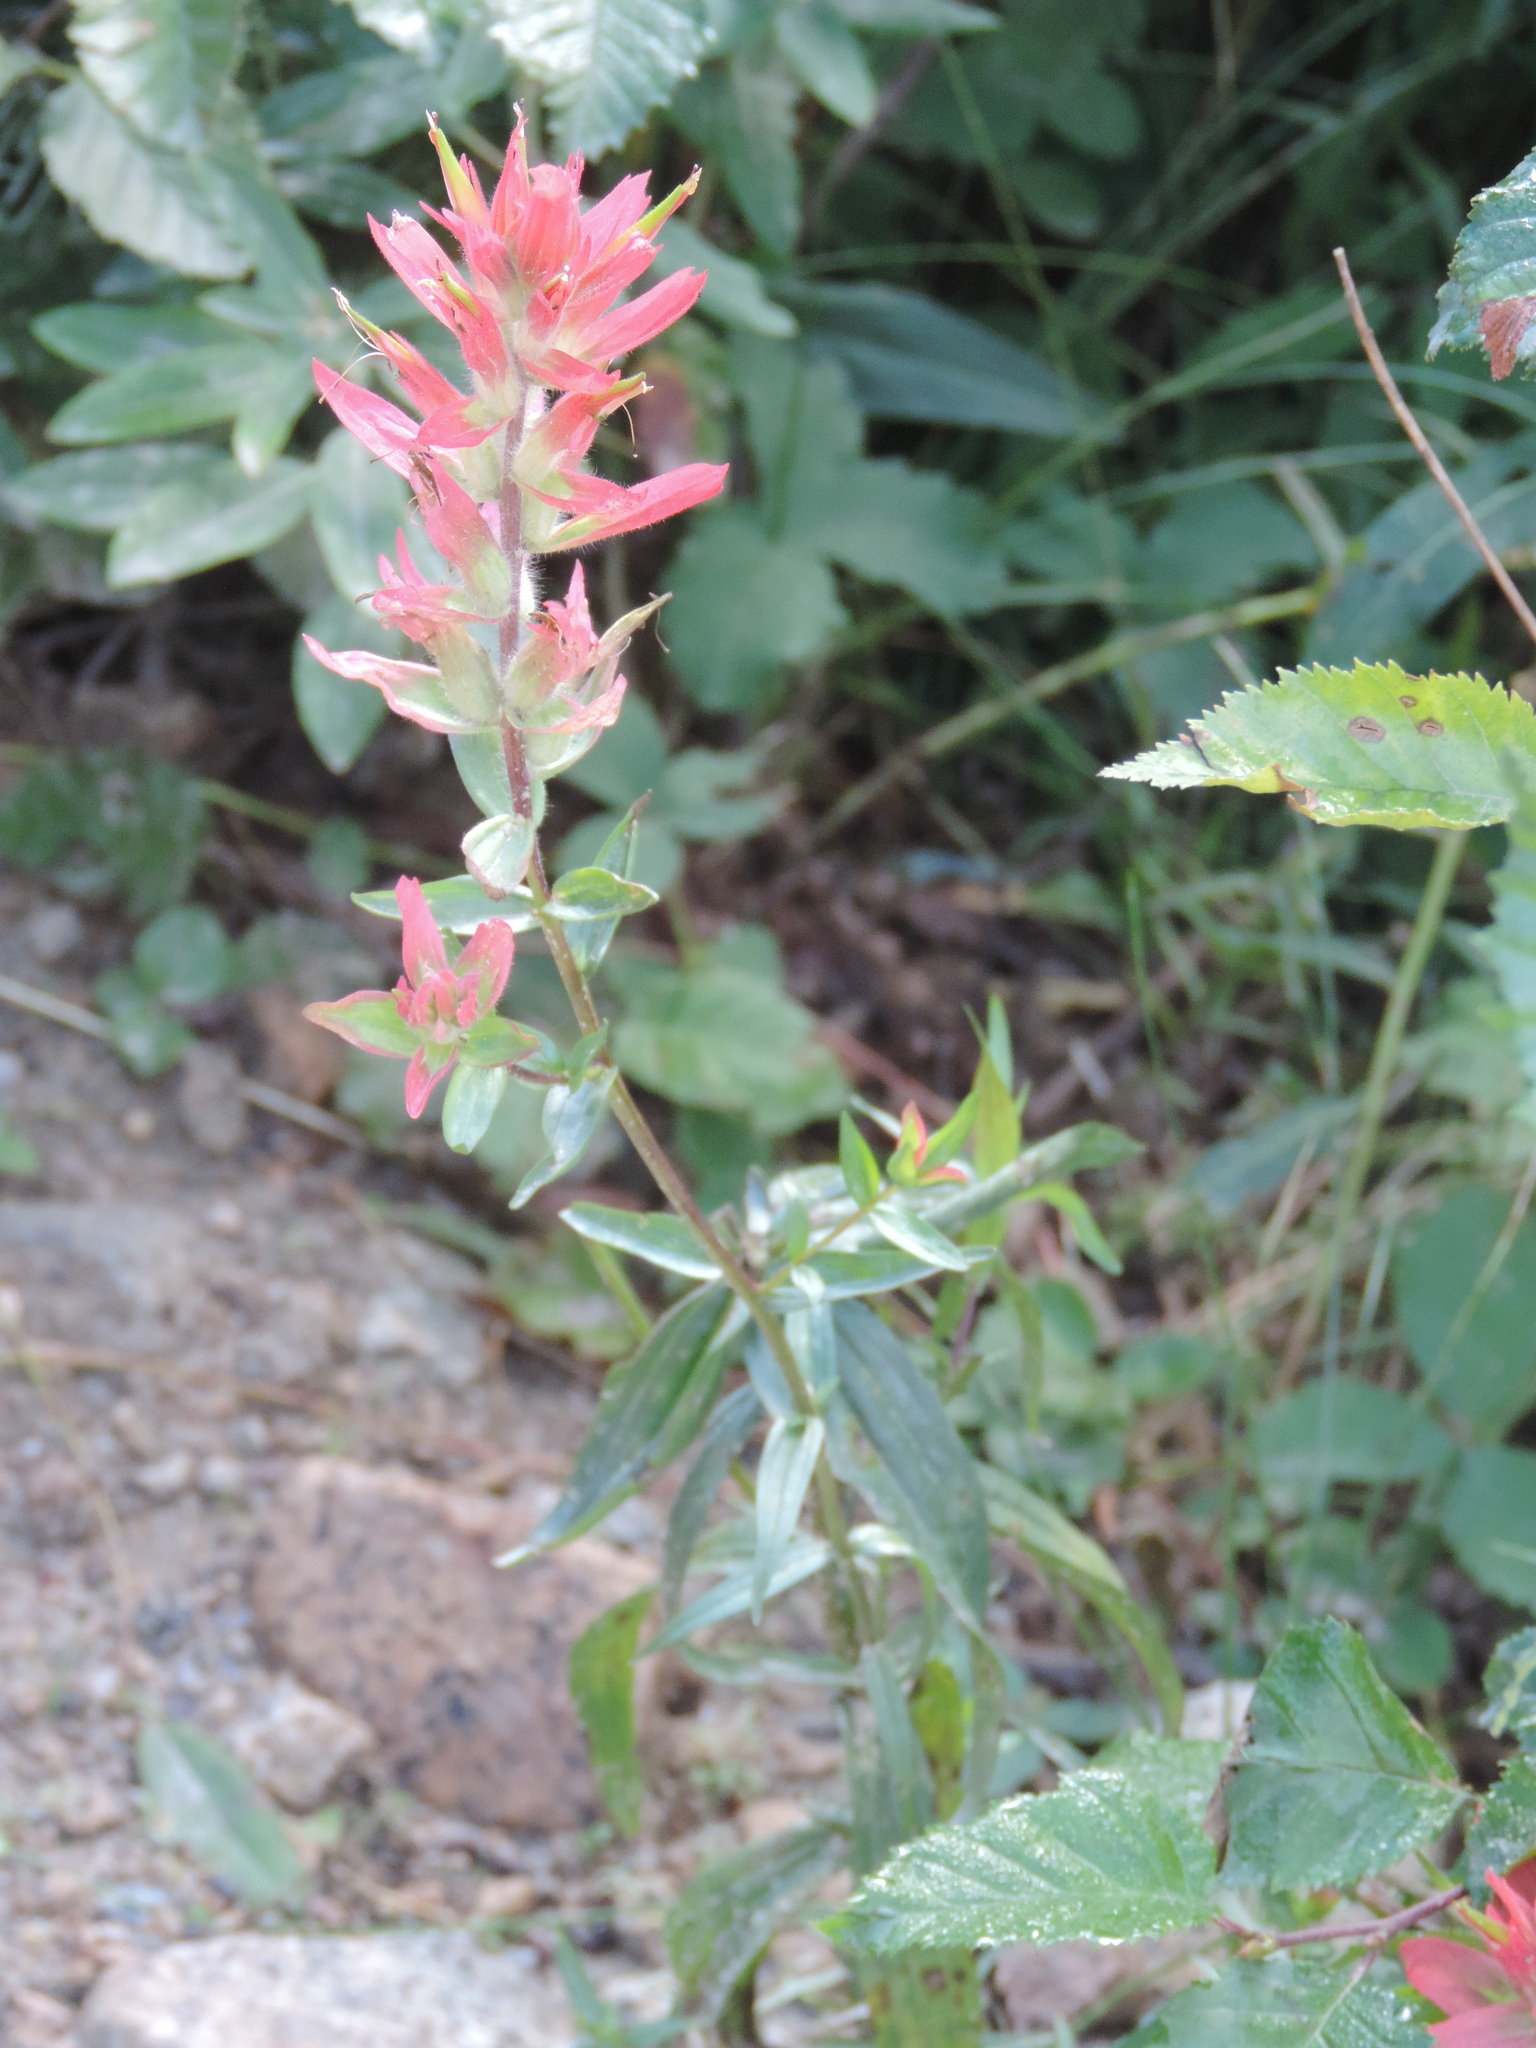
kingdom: Plantae
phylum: Tracheophyta
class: Magnoliopsida
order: Lamiales
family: Orobanchaceae
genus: Castilleja
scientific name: Castilleja miniata
